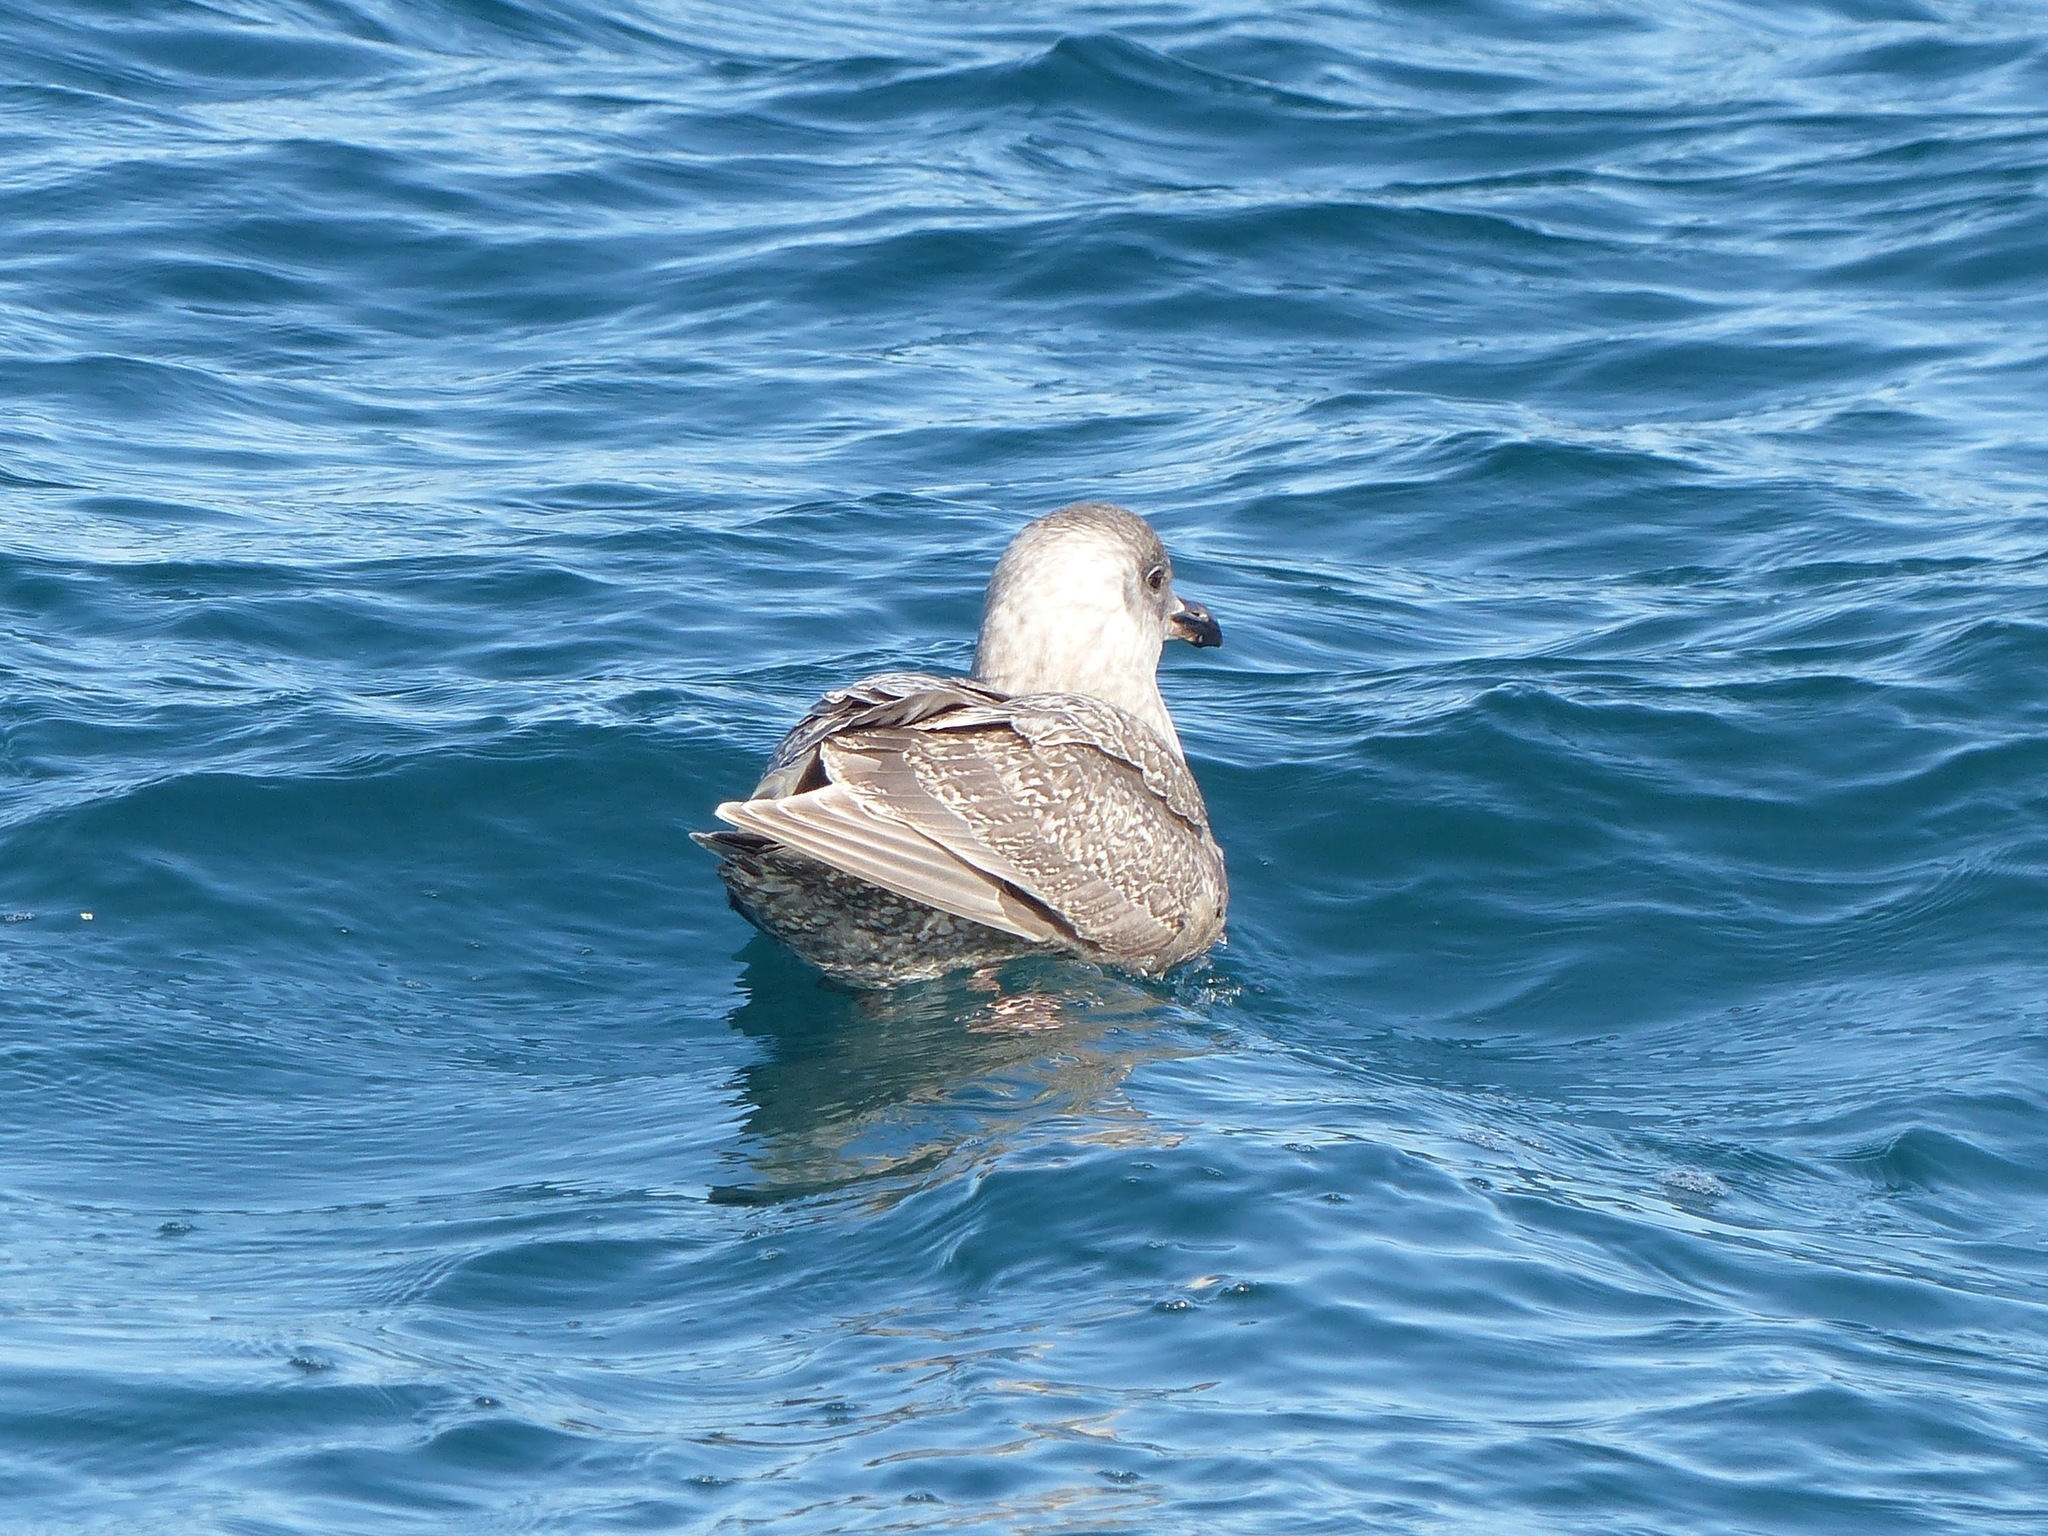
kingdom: Animalia
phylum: Chordata
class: Aves
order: Charadriiformes
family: Laridae
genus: Larus
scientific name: Larus glaucescens
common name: Glaucous-winged gull
